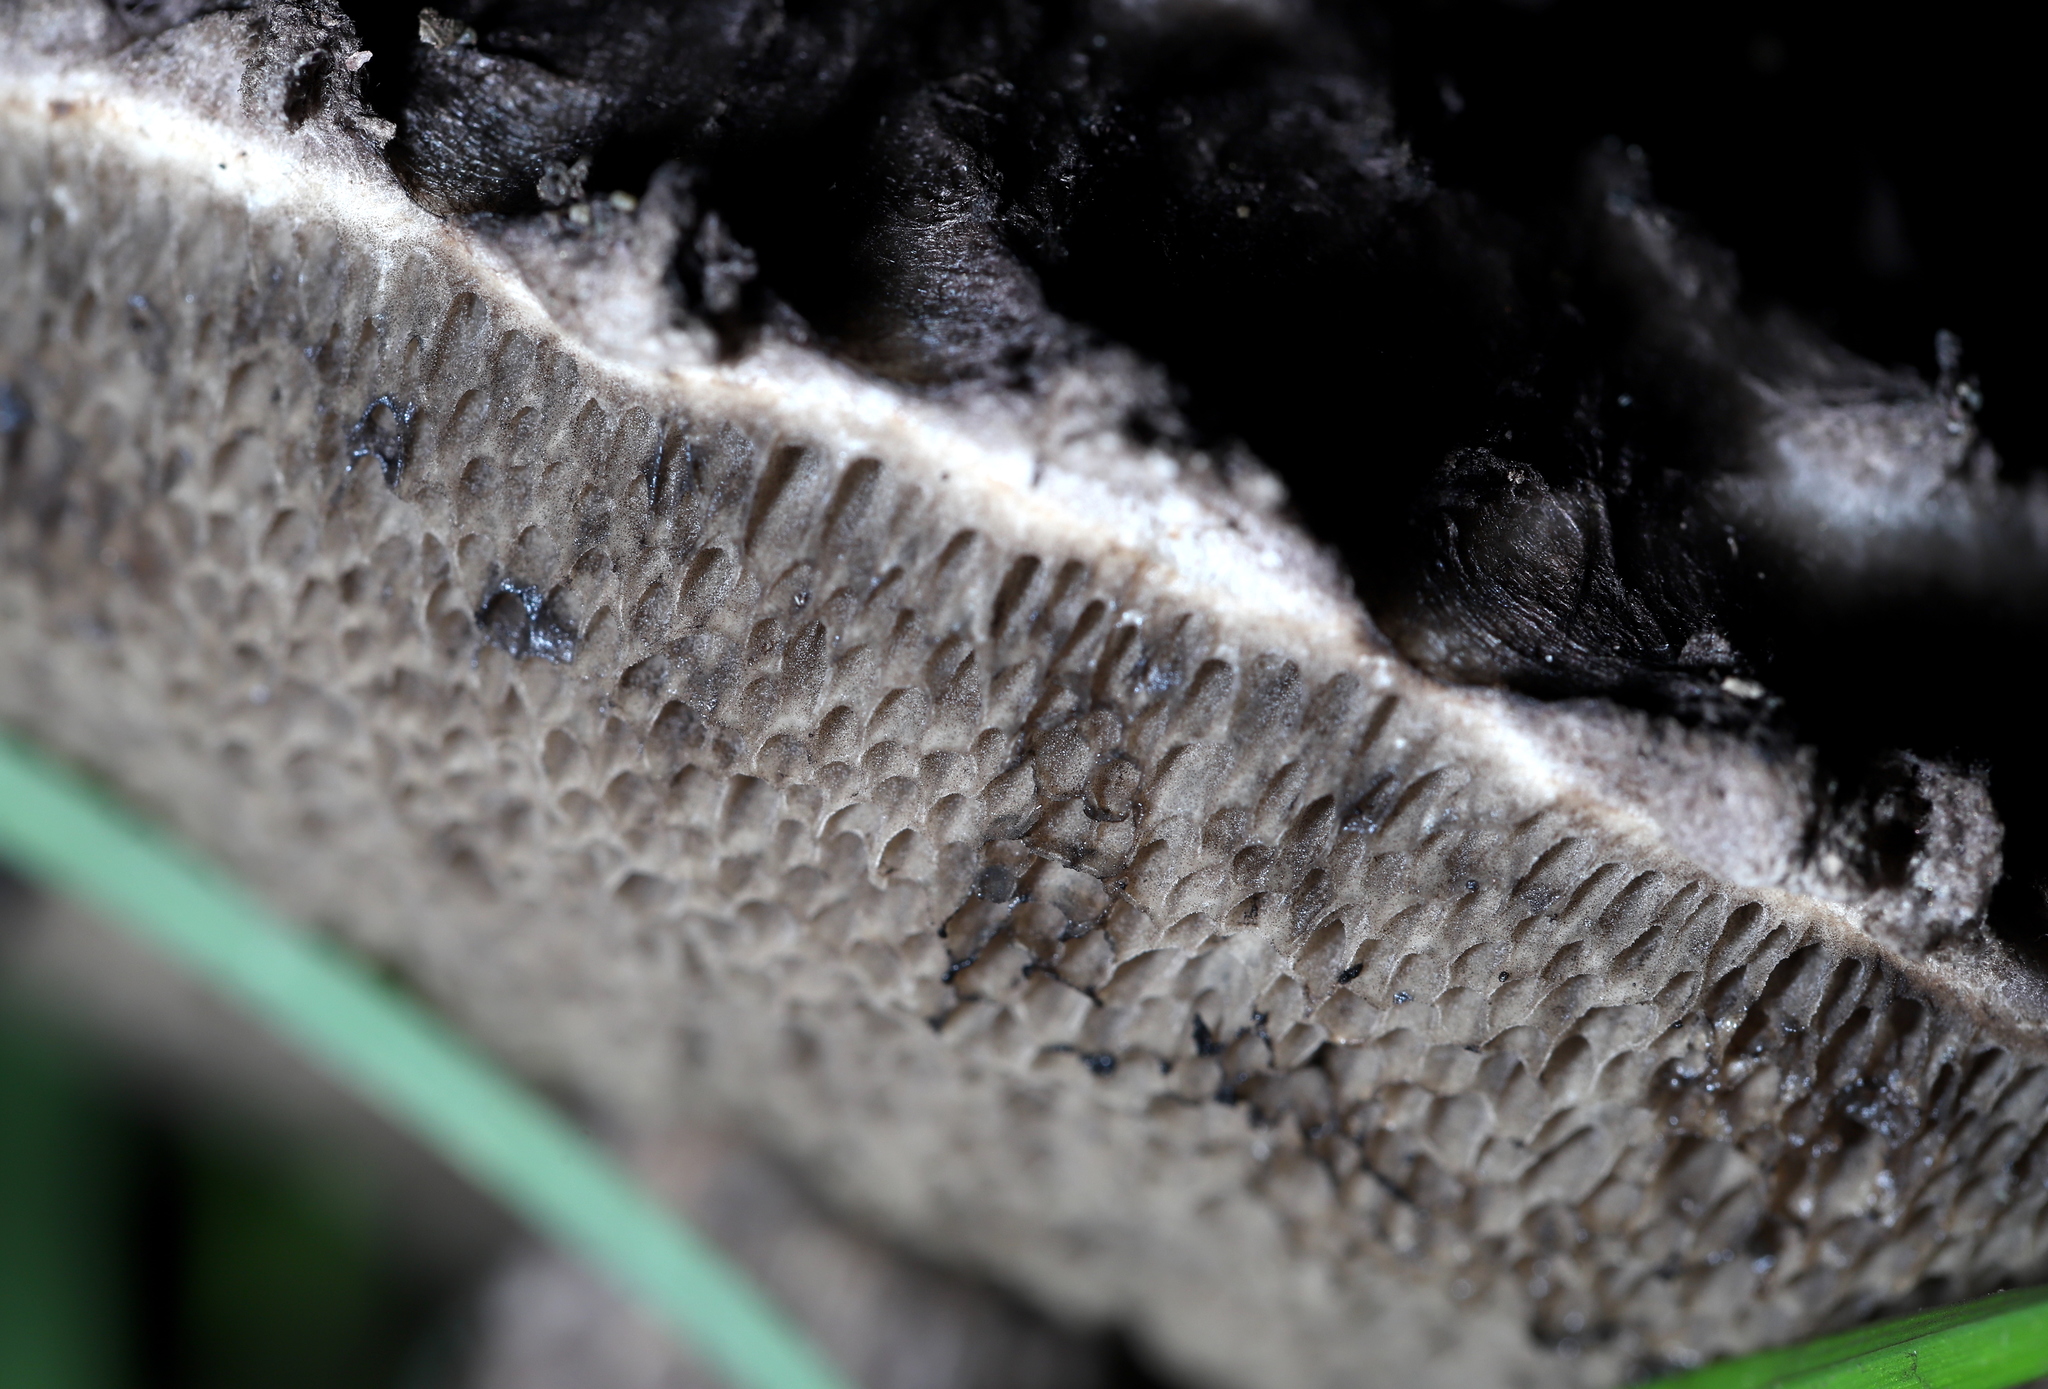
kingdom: Fungi
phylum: Basidiomycota
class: Agaricomycetes
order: Boletales
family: Boletaceae
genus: Strobilomyces
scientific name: Strobilomyces
